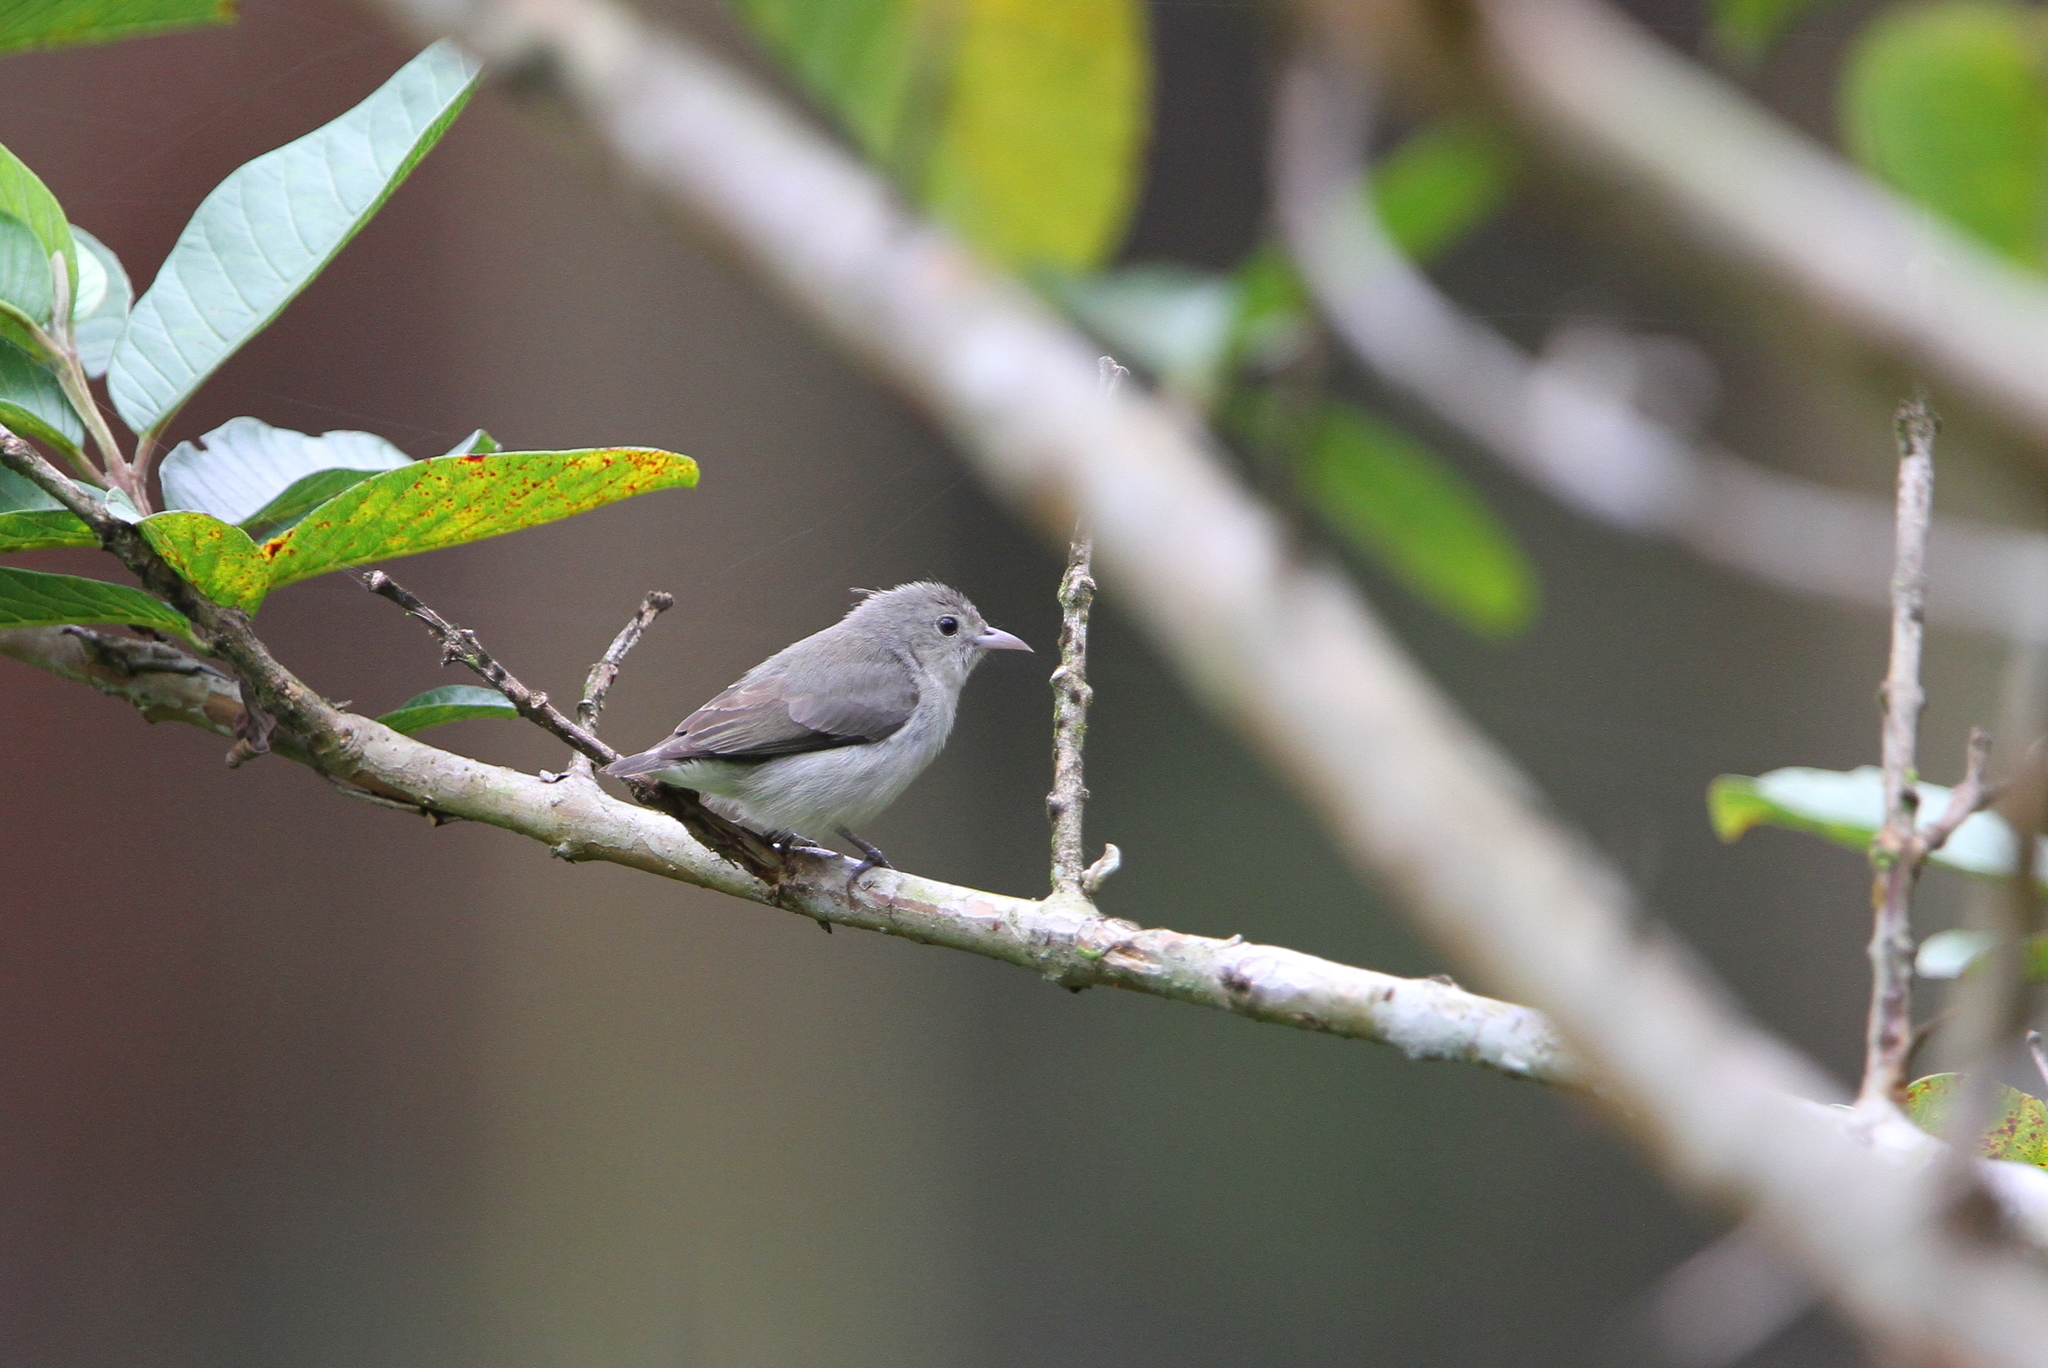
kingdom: Animalia
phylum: Chordata
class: Aves
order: Passeriformes
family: Dicaeidae
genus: Dicaeum
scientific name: Dicaeum erythrorhynchos
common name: Pale-billed flowerpecker
